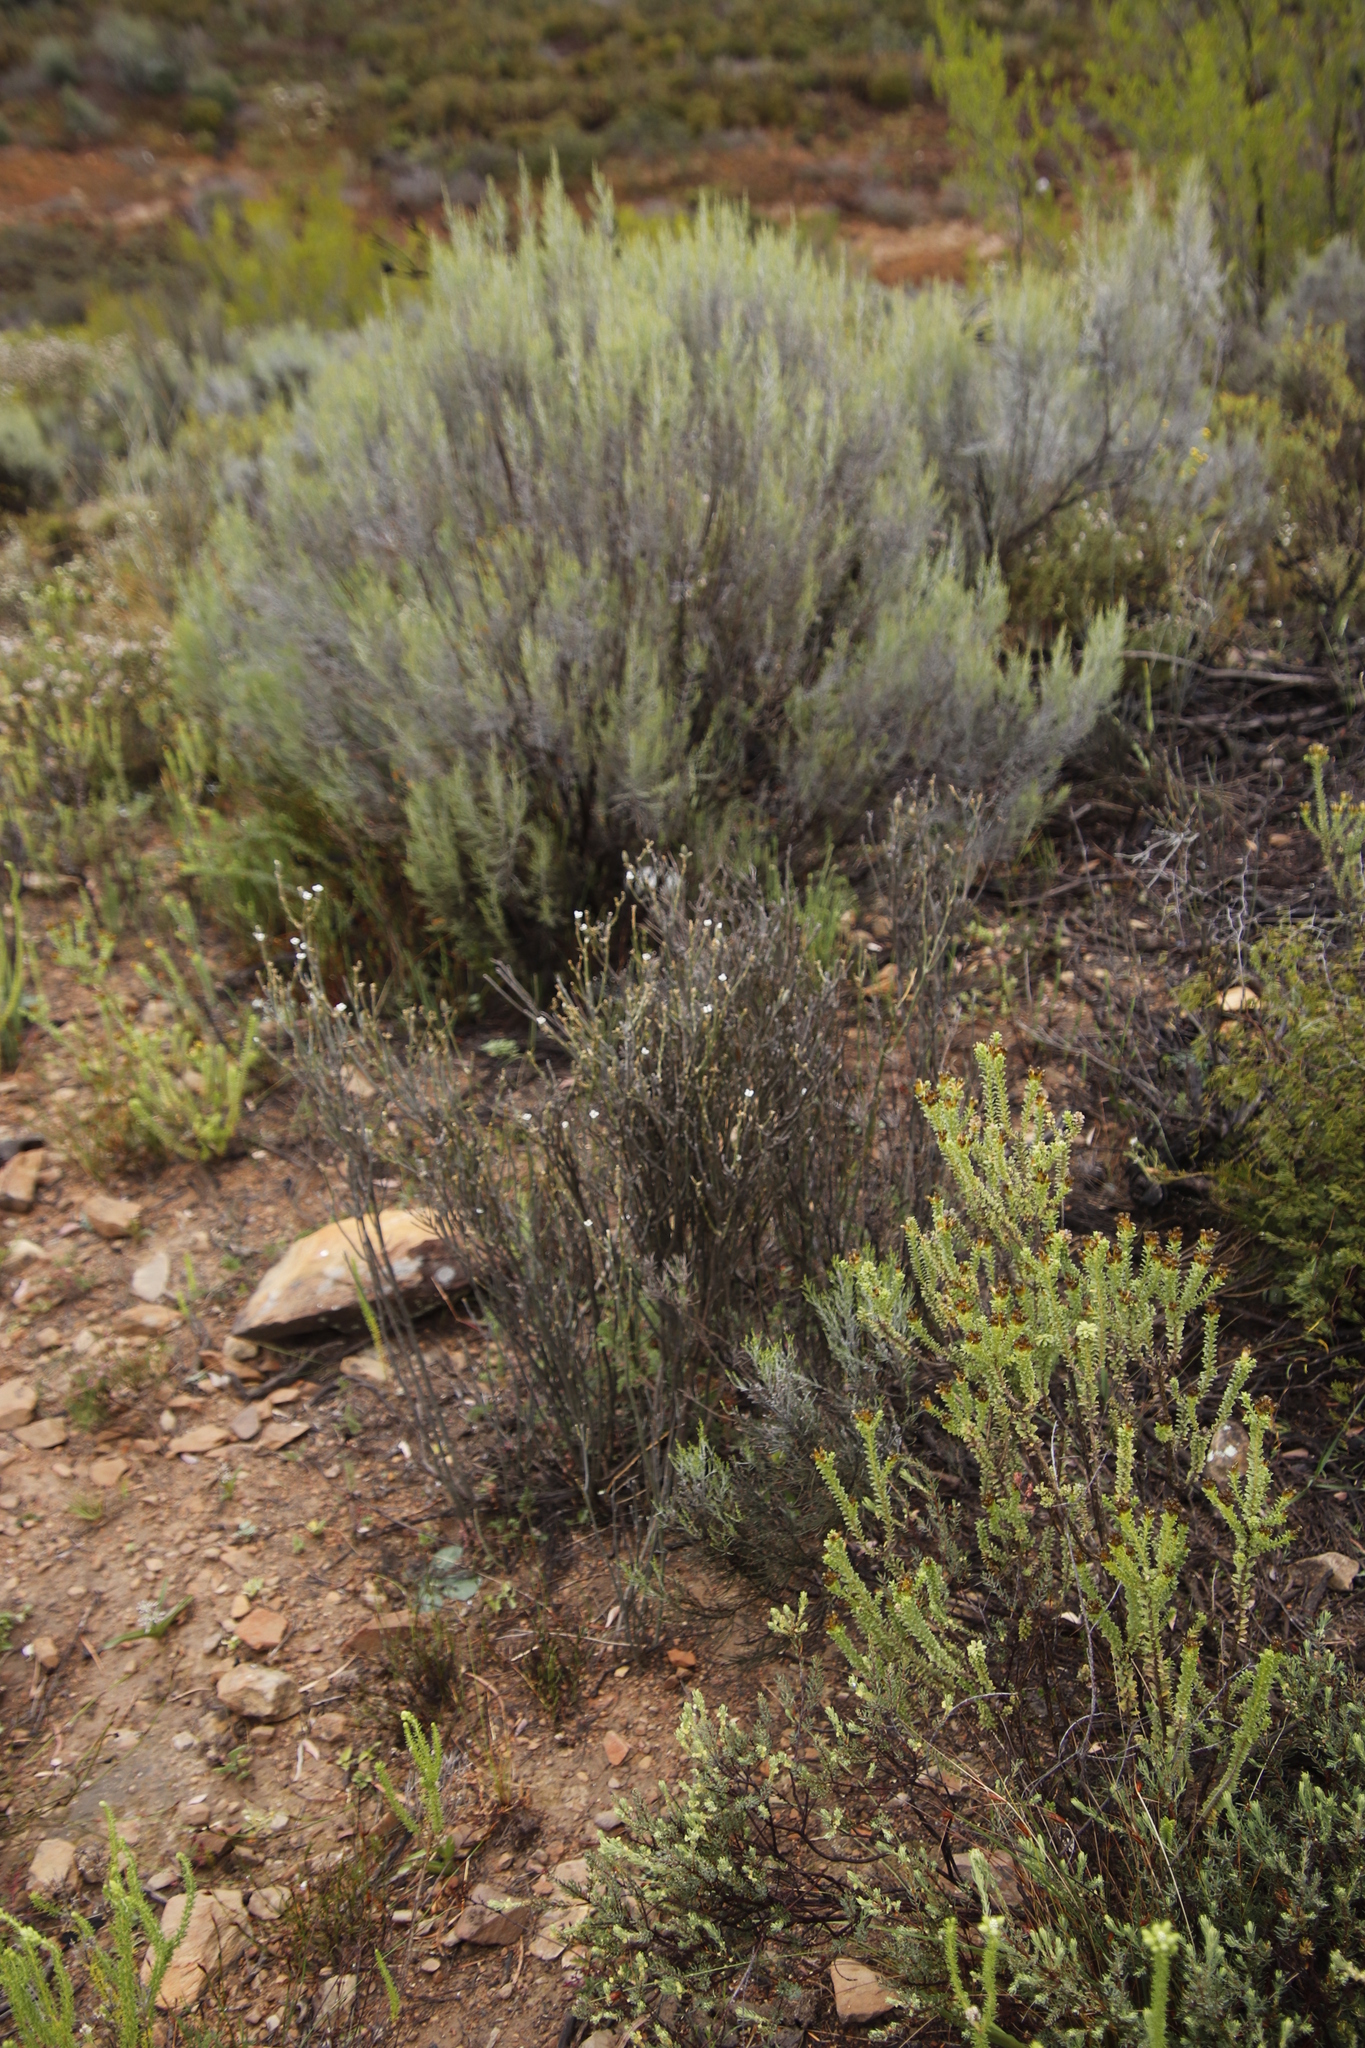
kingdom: Plantae
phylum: Tracheophyta
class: Magnoliopsida
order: Asterales
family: Asteraceae
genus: Dicerothamnus
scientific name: Dicerothamnus rhinocerotis
